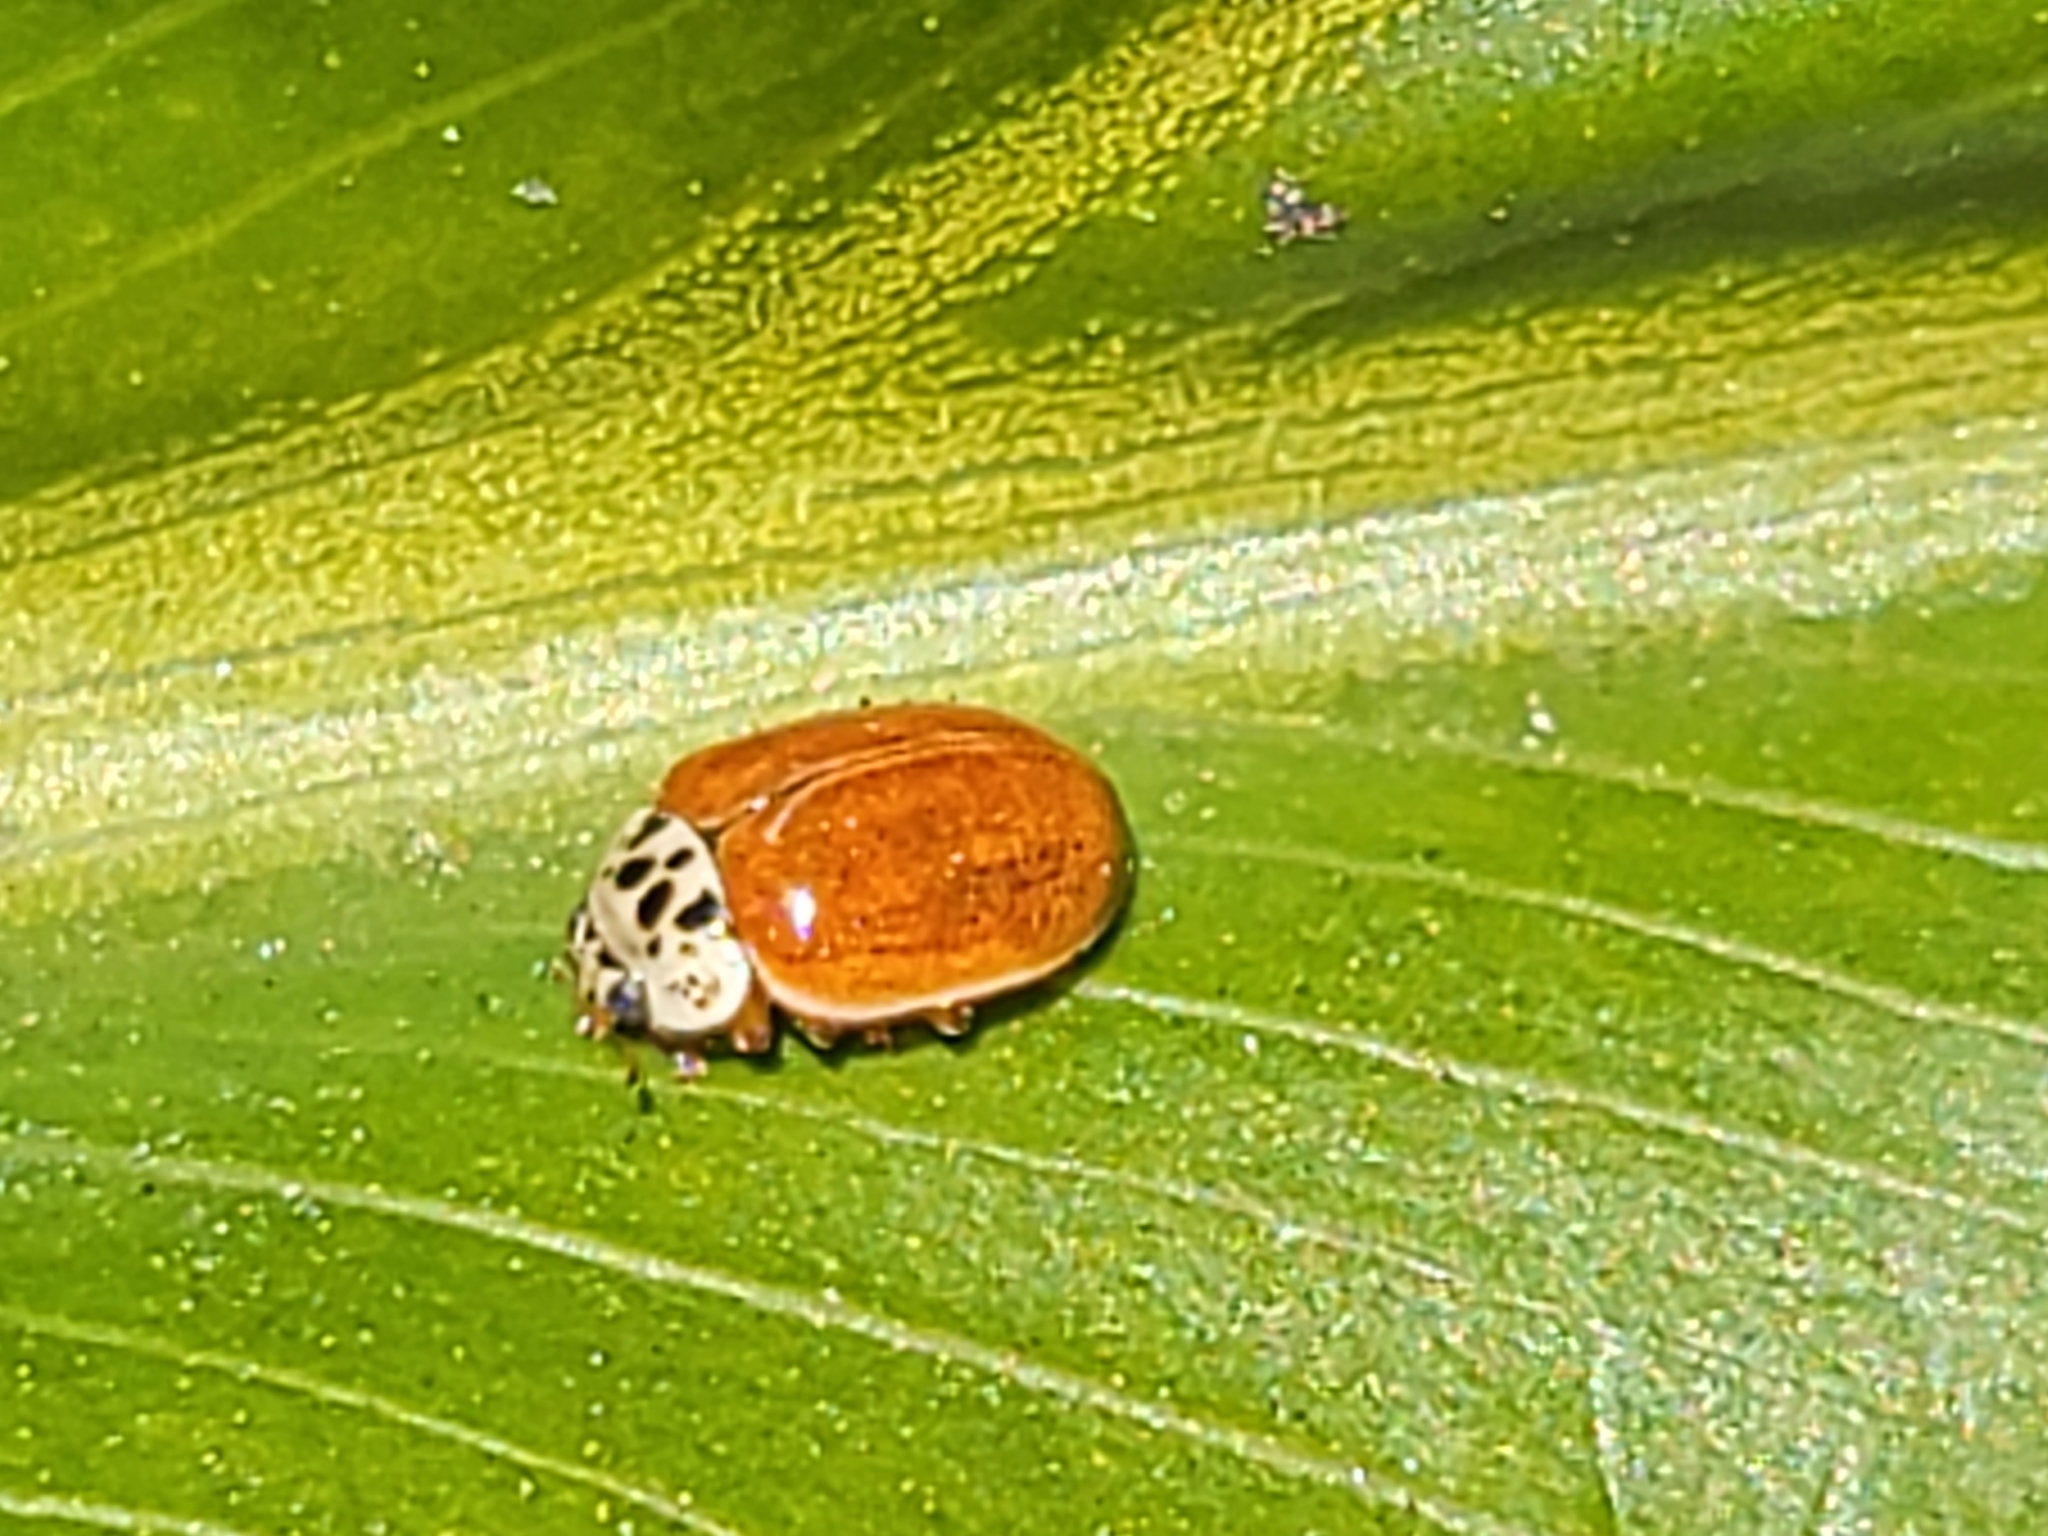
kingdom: Animalia
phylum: Arthropoda
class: Insecta
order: Coleoptera
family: Coccinellidae
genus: Mulsantina
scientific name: Mulsantina picta
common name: Painted ladybird
